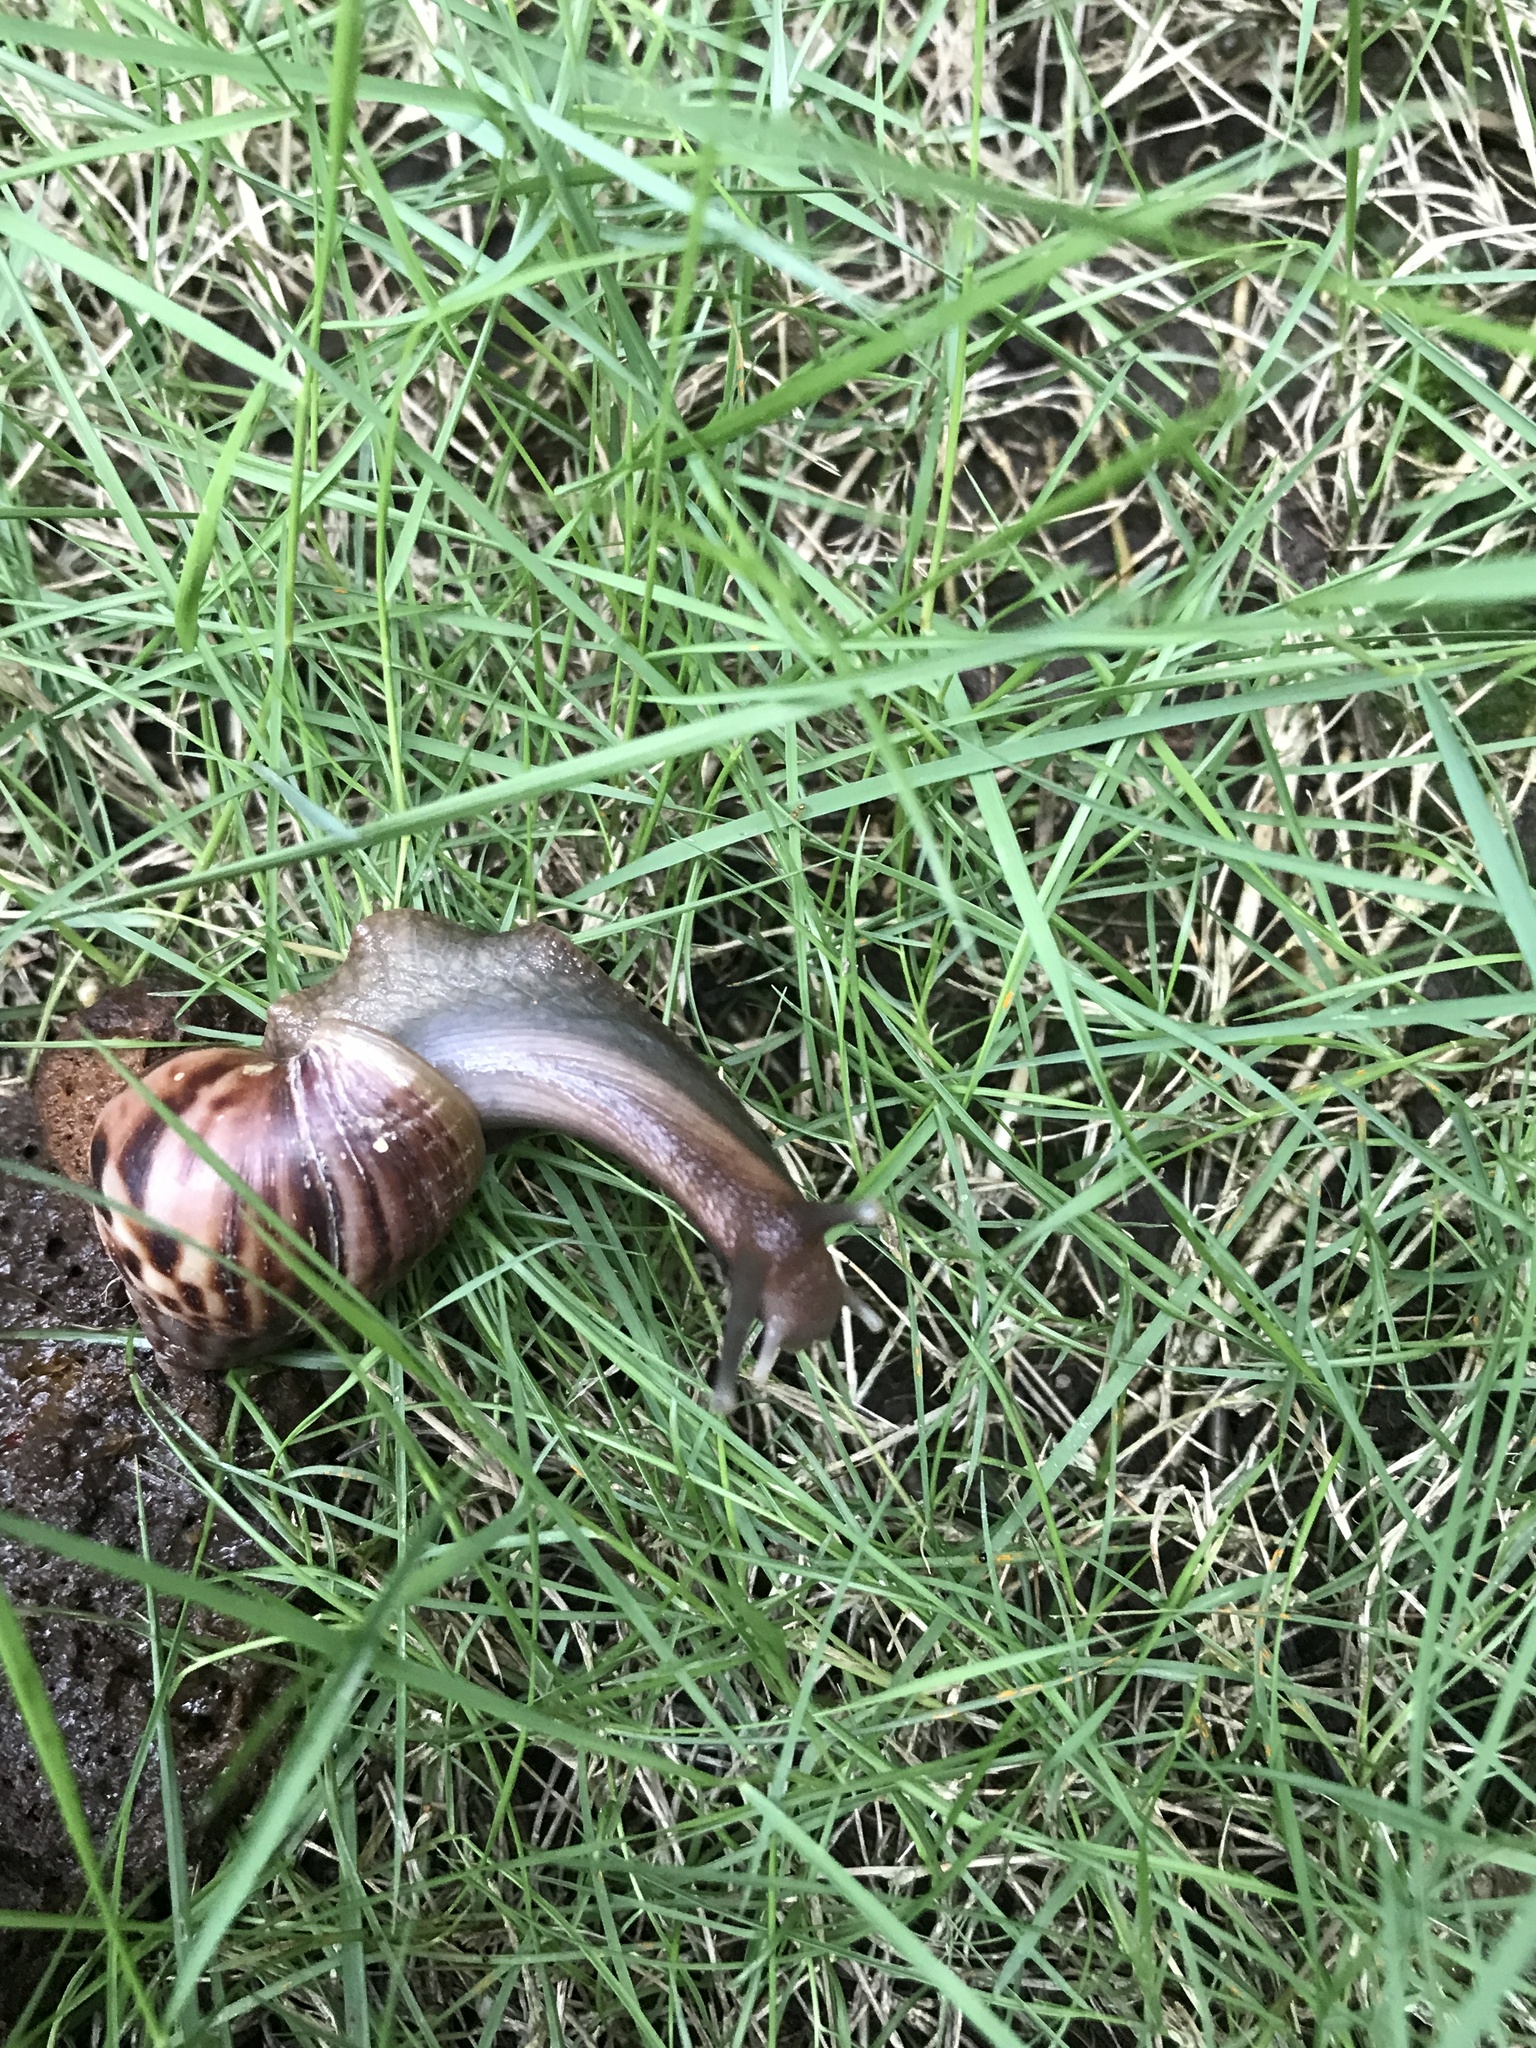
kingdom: Animalia
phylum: Mollusca
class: Gastropoda
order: Stylommatophora
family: Achatinidae
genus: Lissachatina
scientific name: Lissachatina fulica
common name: Giant african snail
